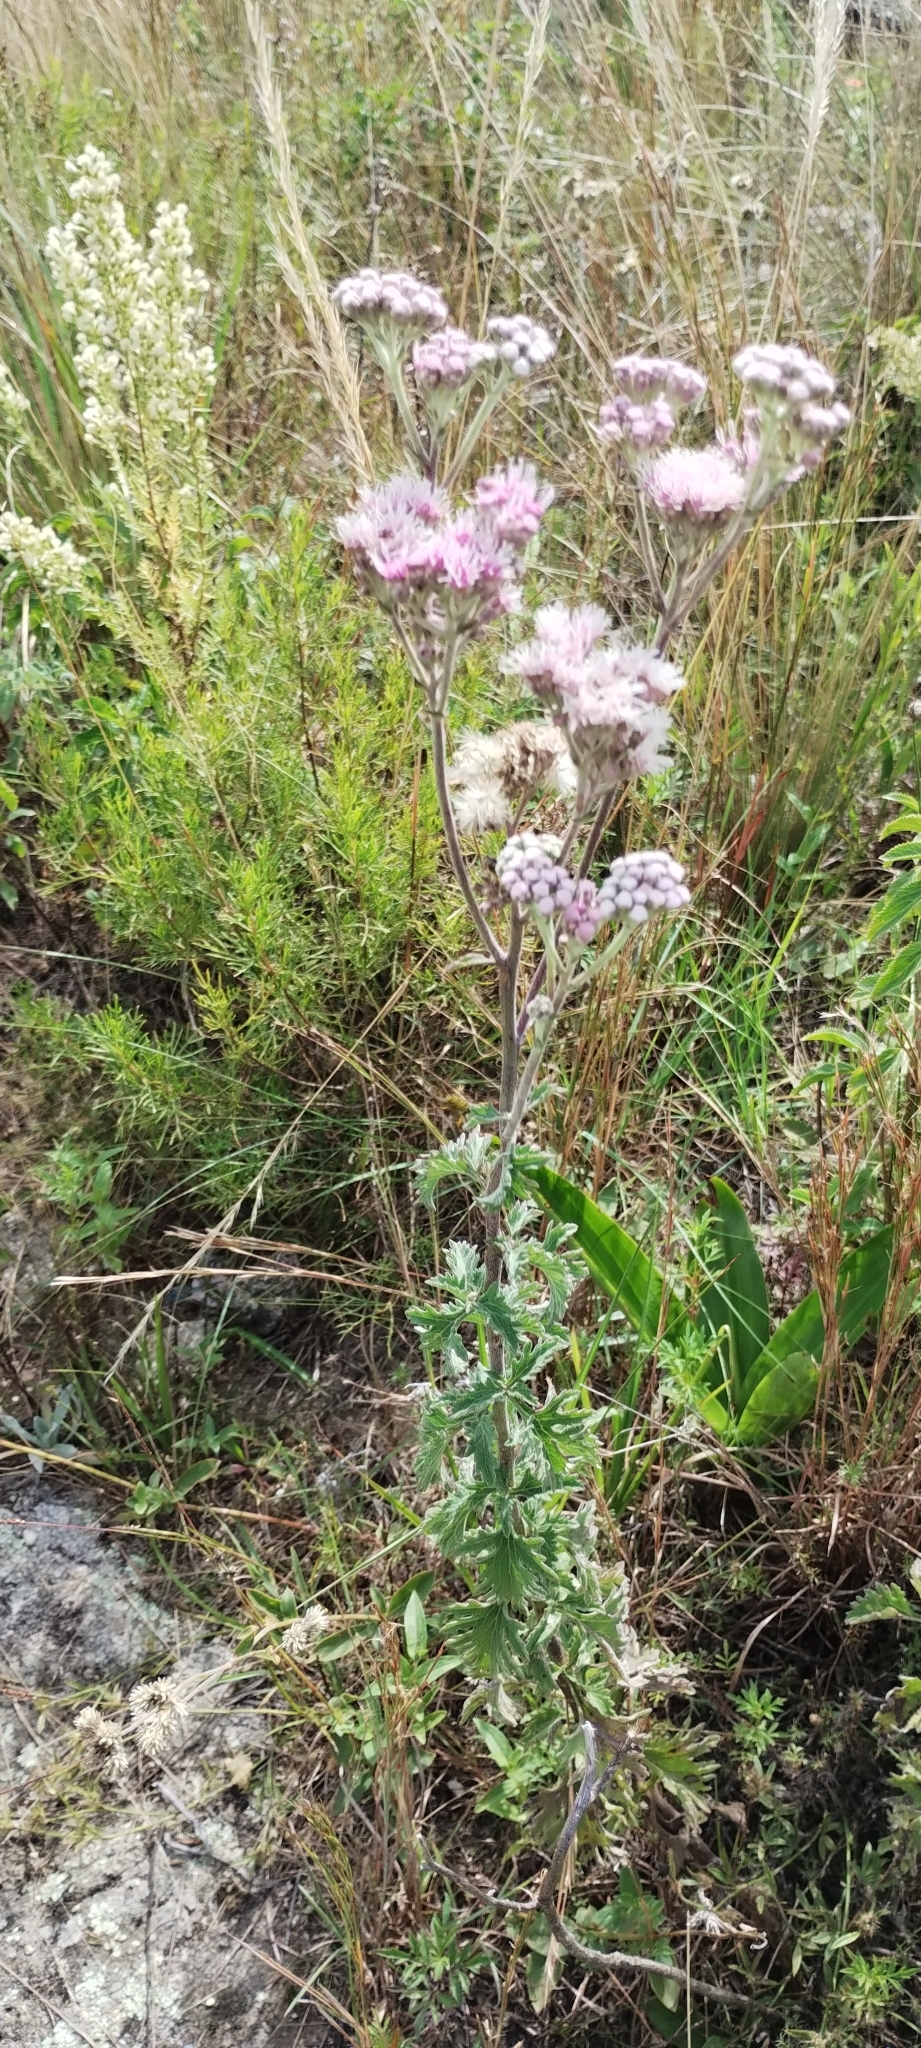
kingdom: Plantae
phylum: Tracheophyta
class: Magnoliopsida
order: Asterales
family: Asteraceae
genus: Gyptis
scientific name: Gyptis artemisifolia
